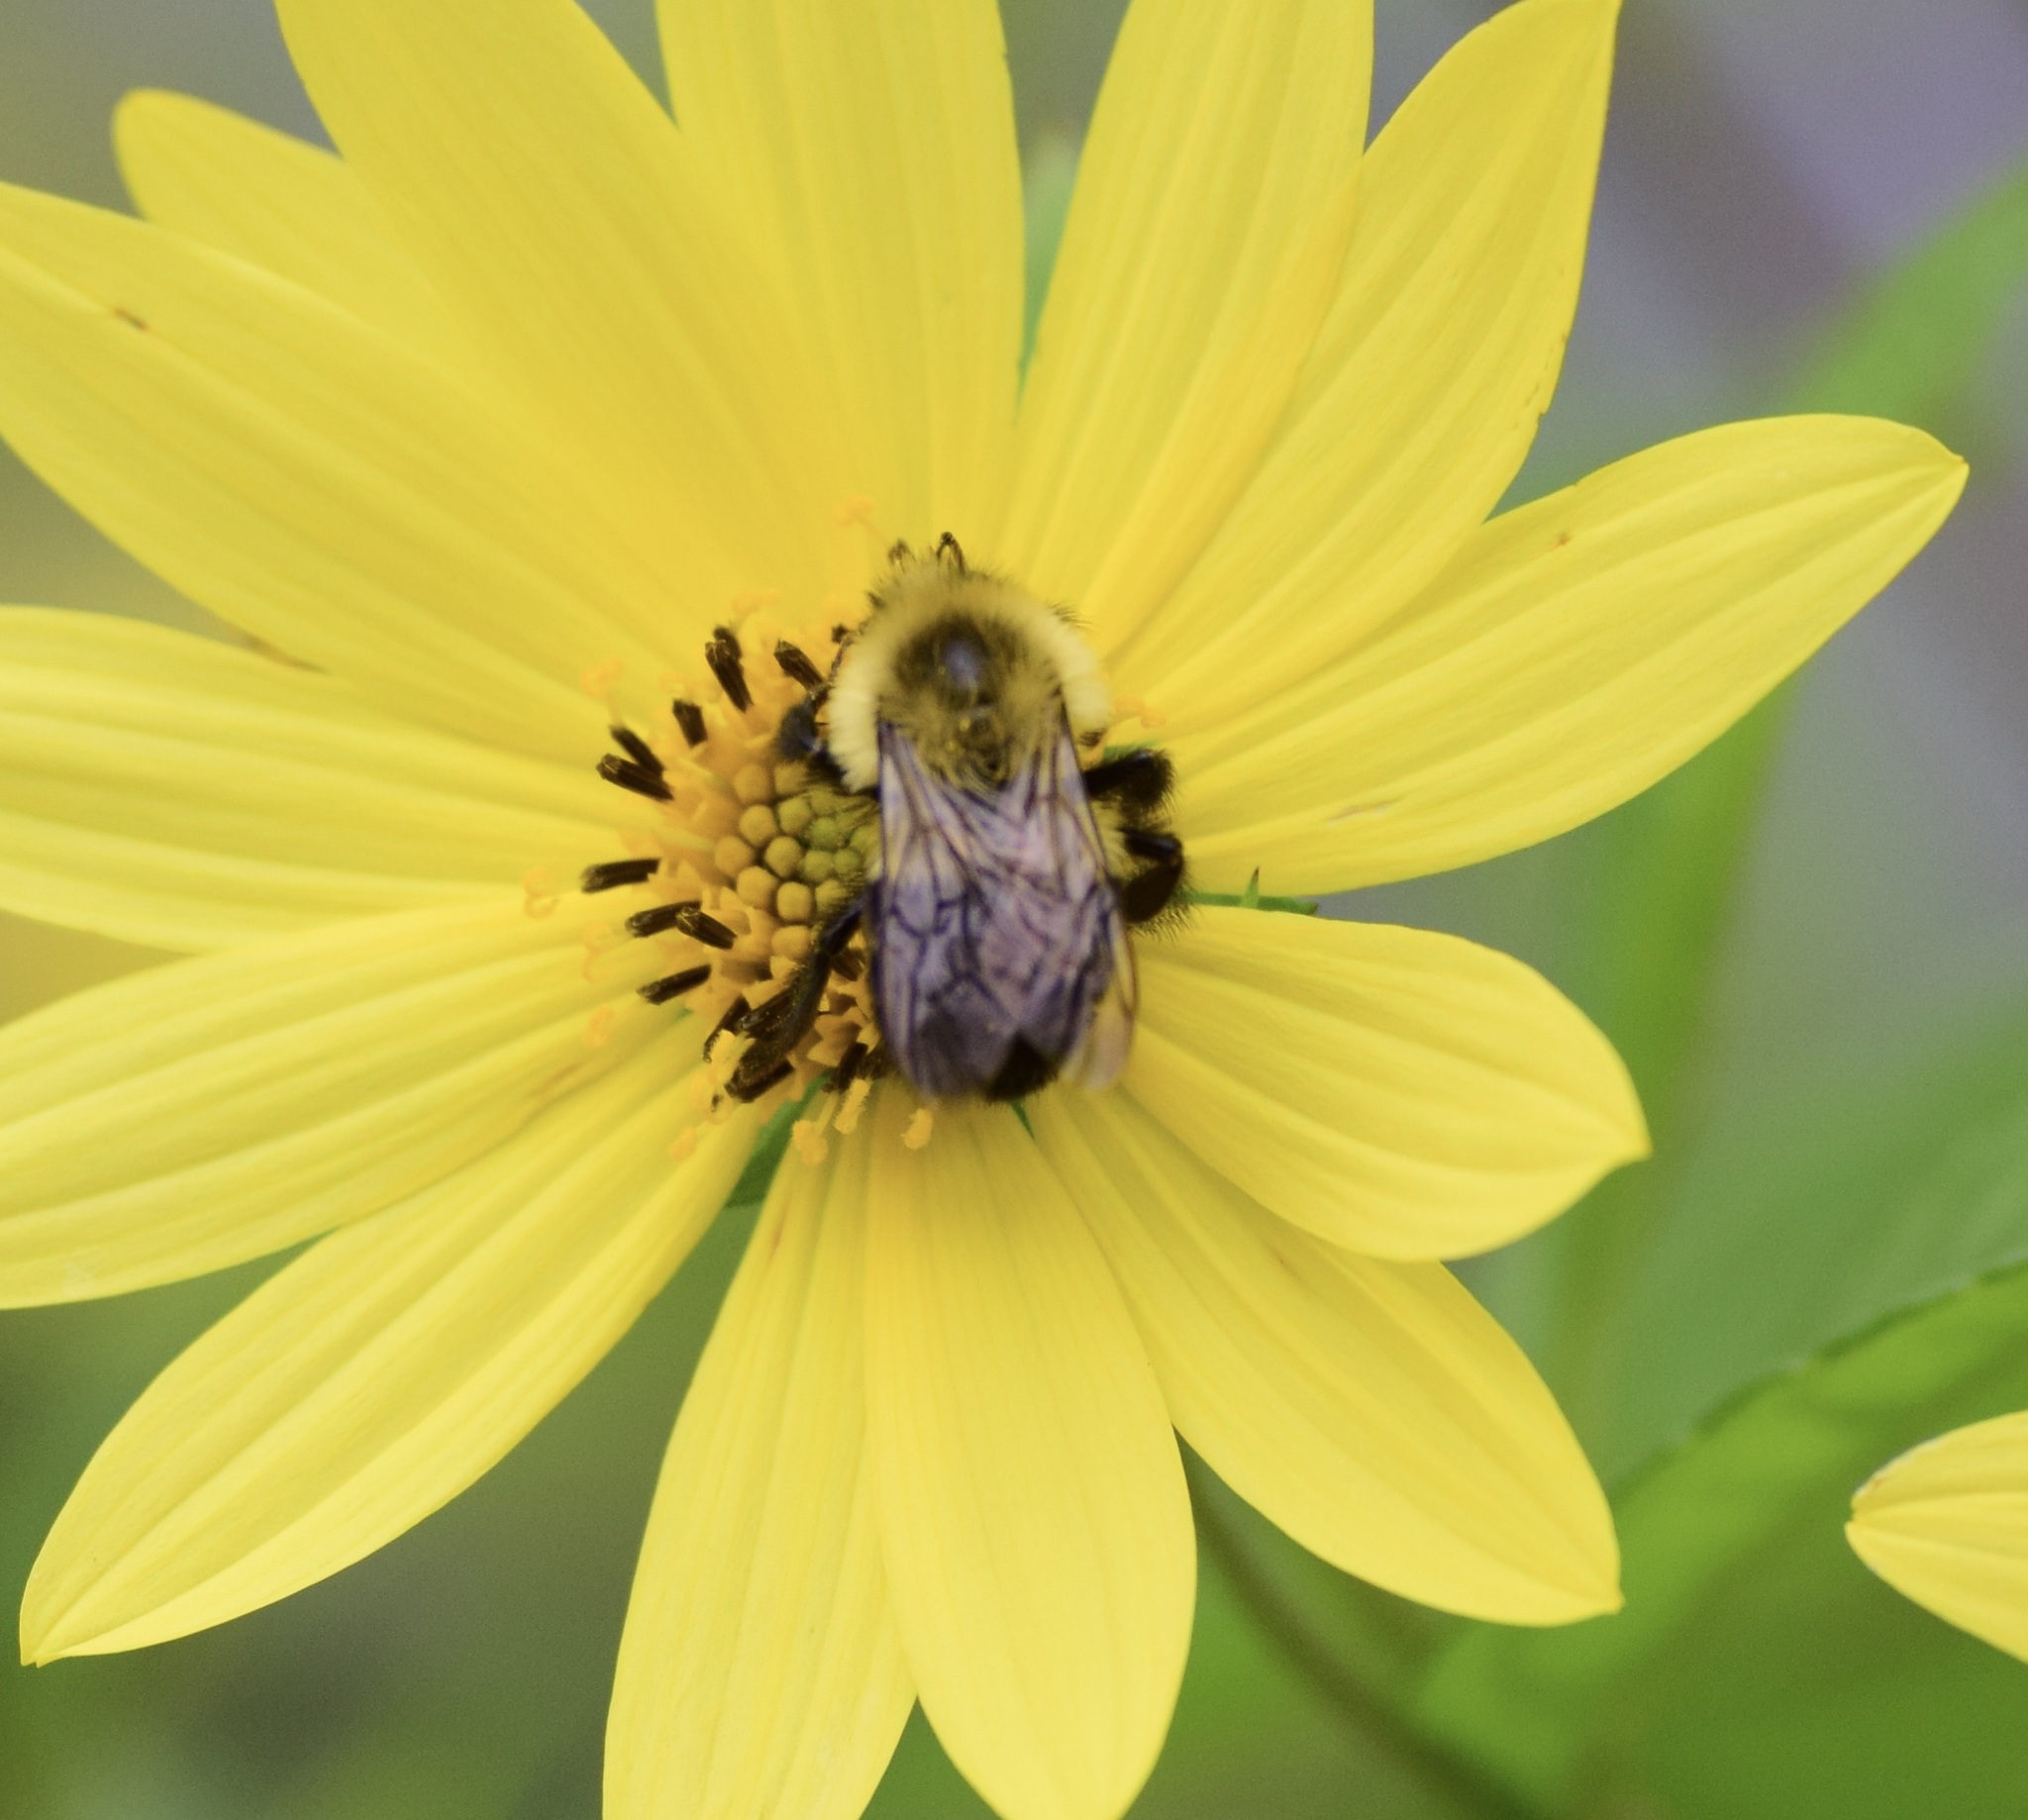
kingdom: Animalia
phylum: Arthropoda
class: Insecta
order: Hymenoptera
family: Apidae
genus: Bombus
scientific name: Bombus impatiens
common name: Common eastern bumble bee
